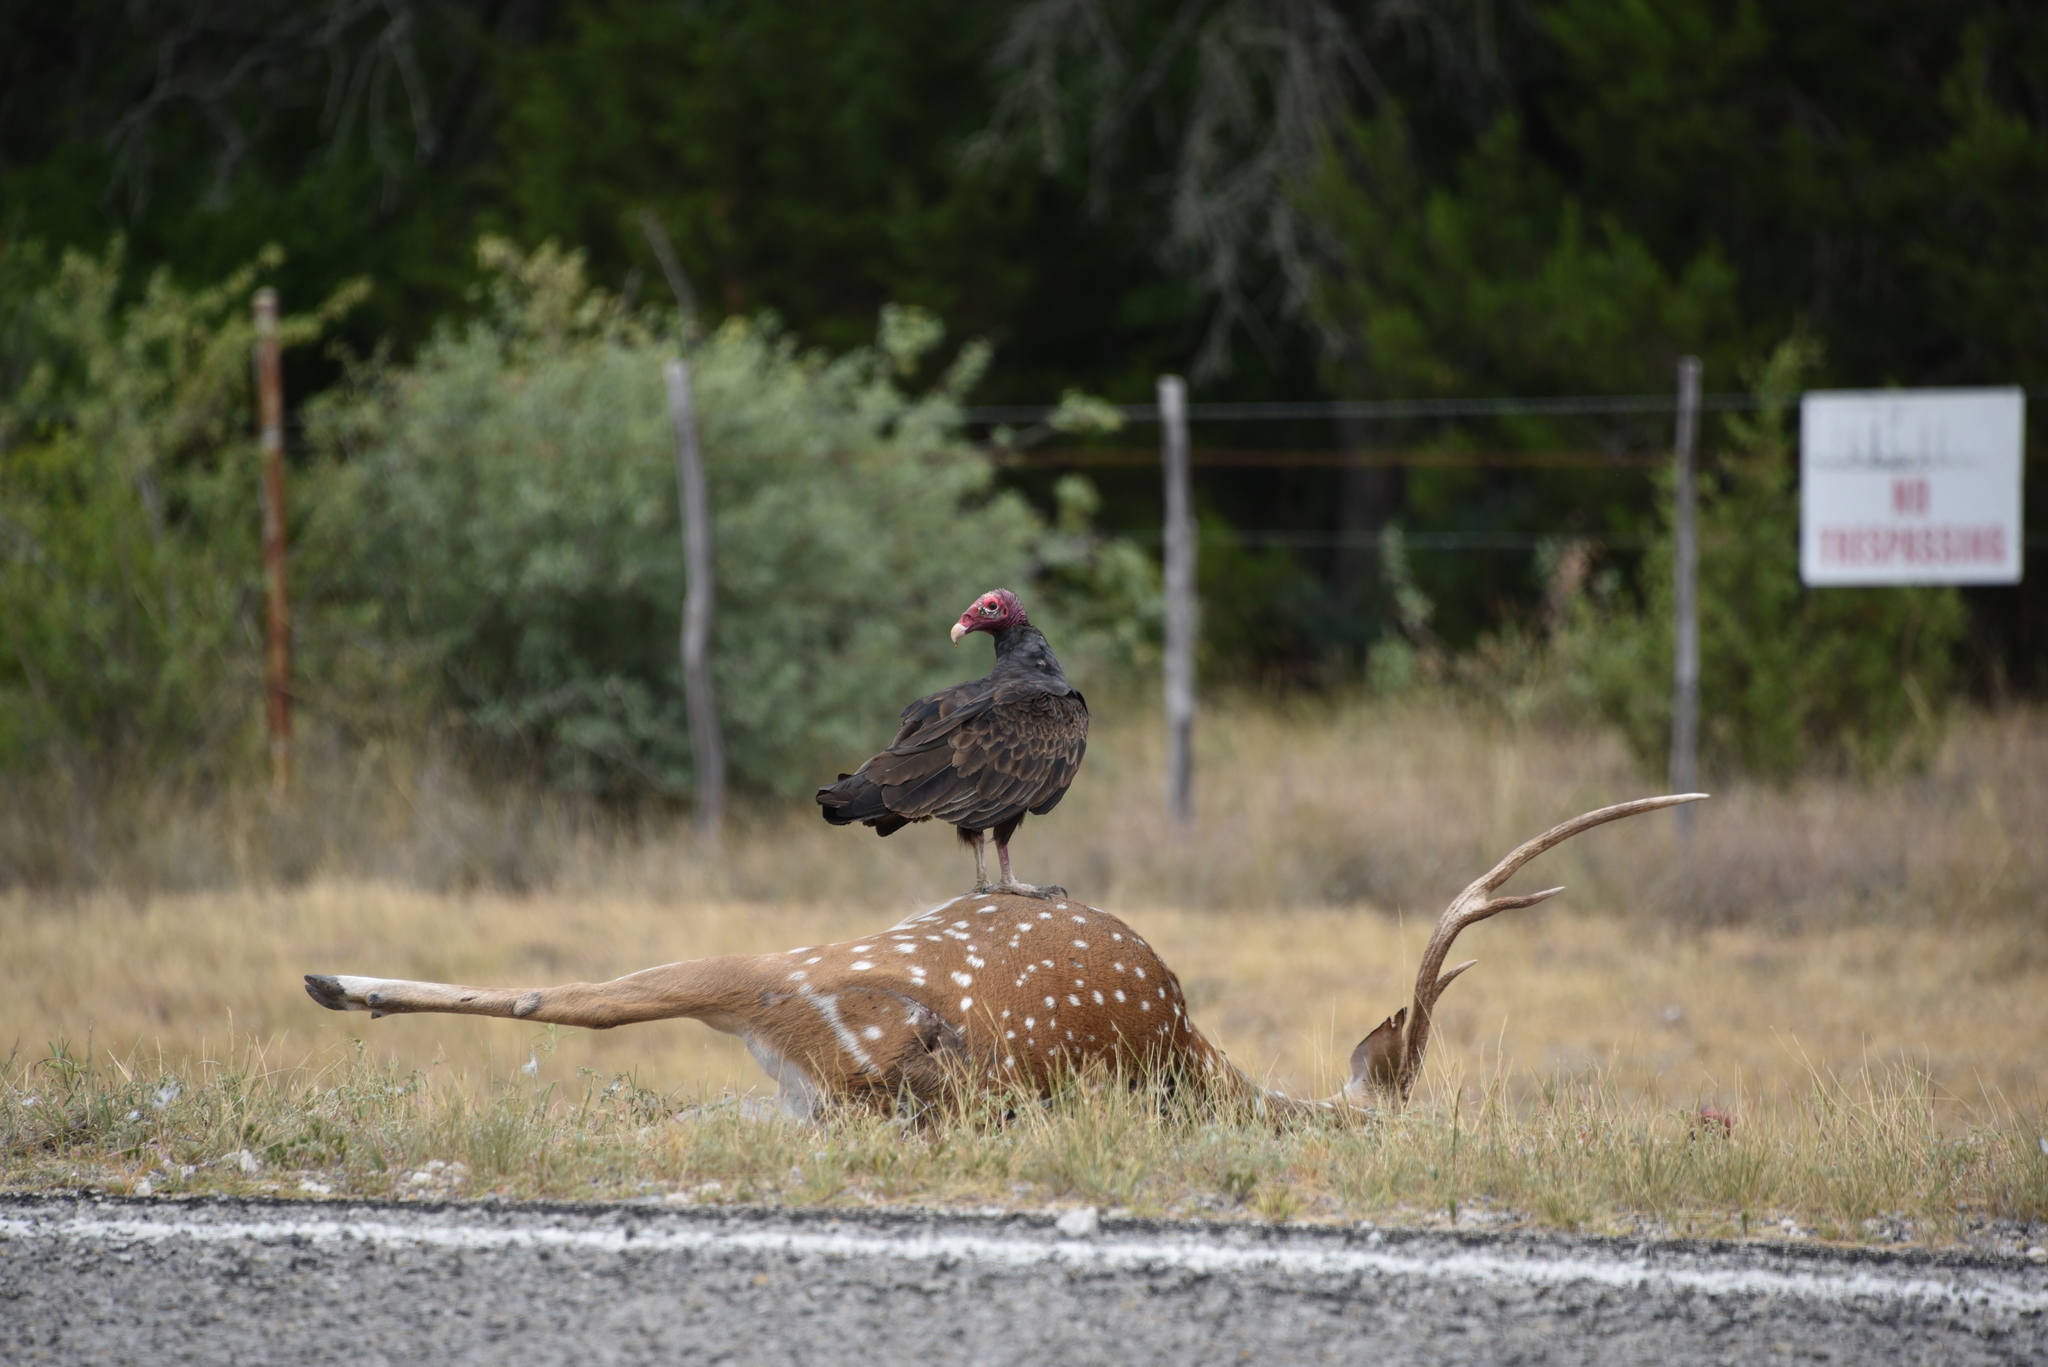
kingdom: Animalia
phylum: Chordata
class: Aves
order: Accipitriformes
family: Cathartidae
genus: Cathartes
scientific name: Cathartes aura
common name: Turkey vulture
